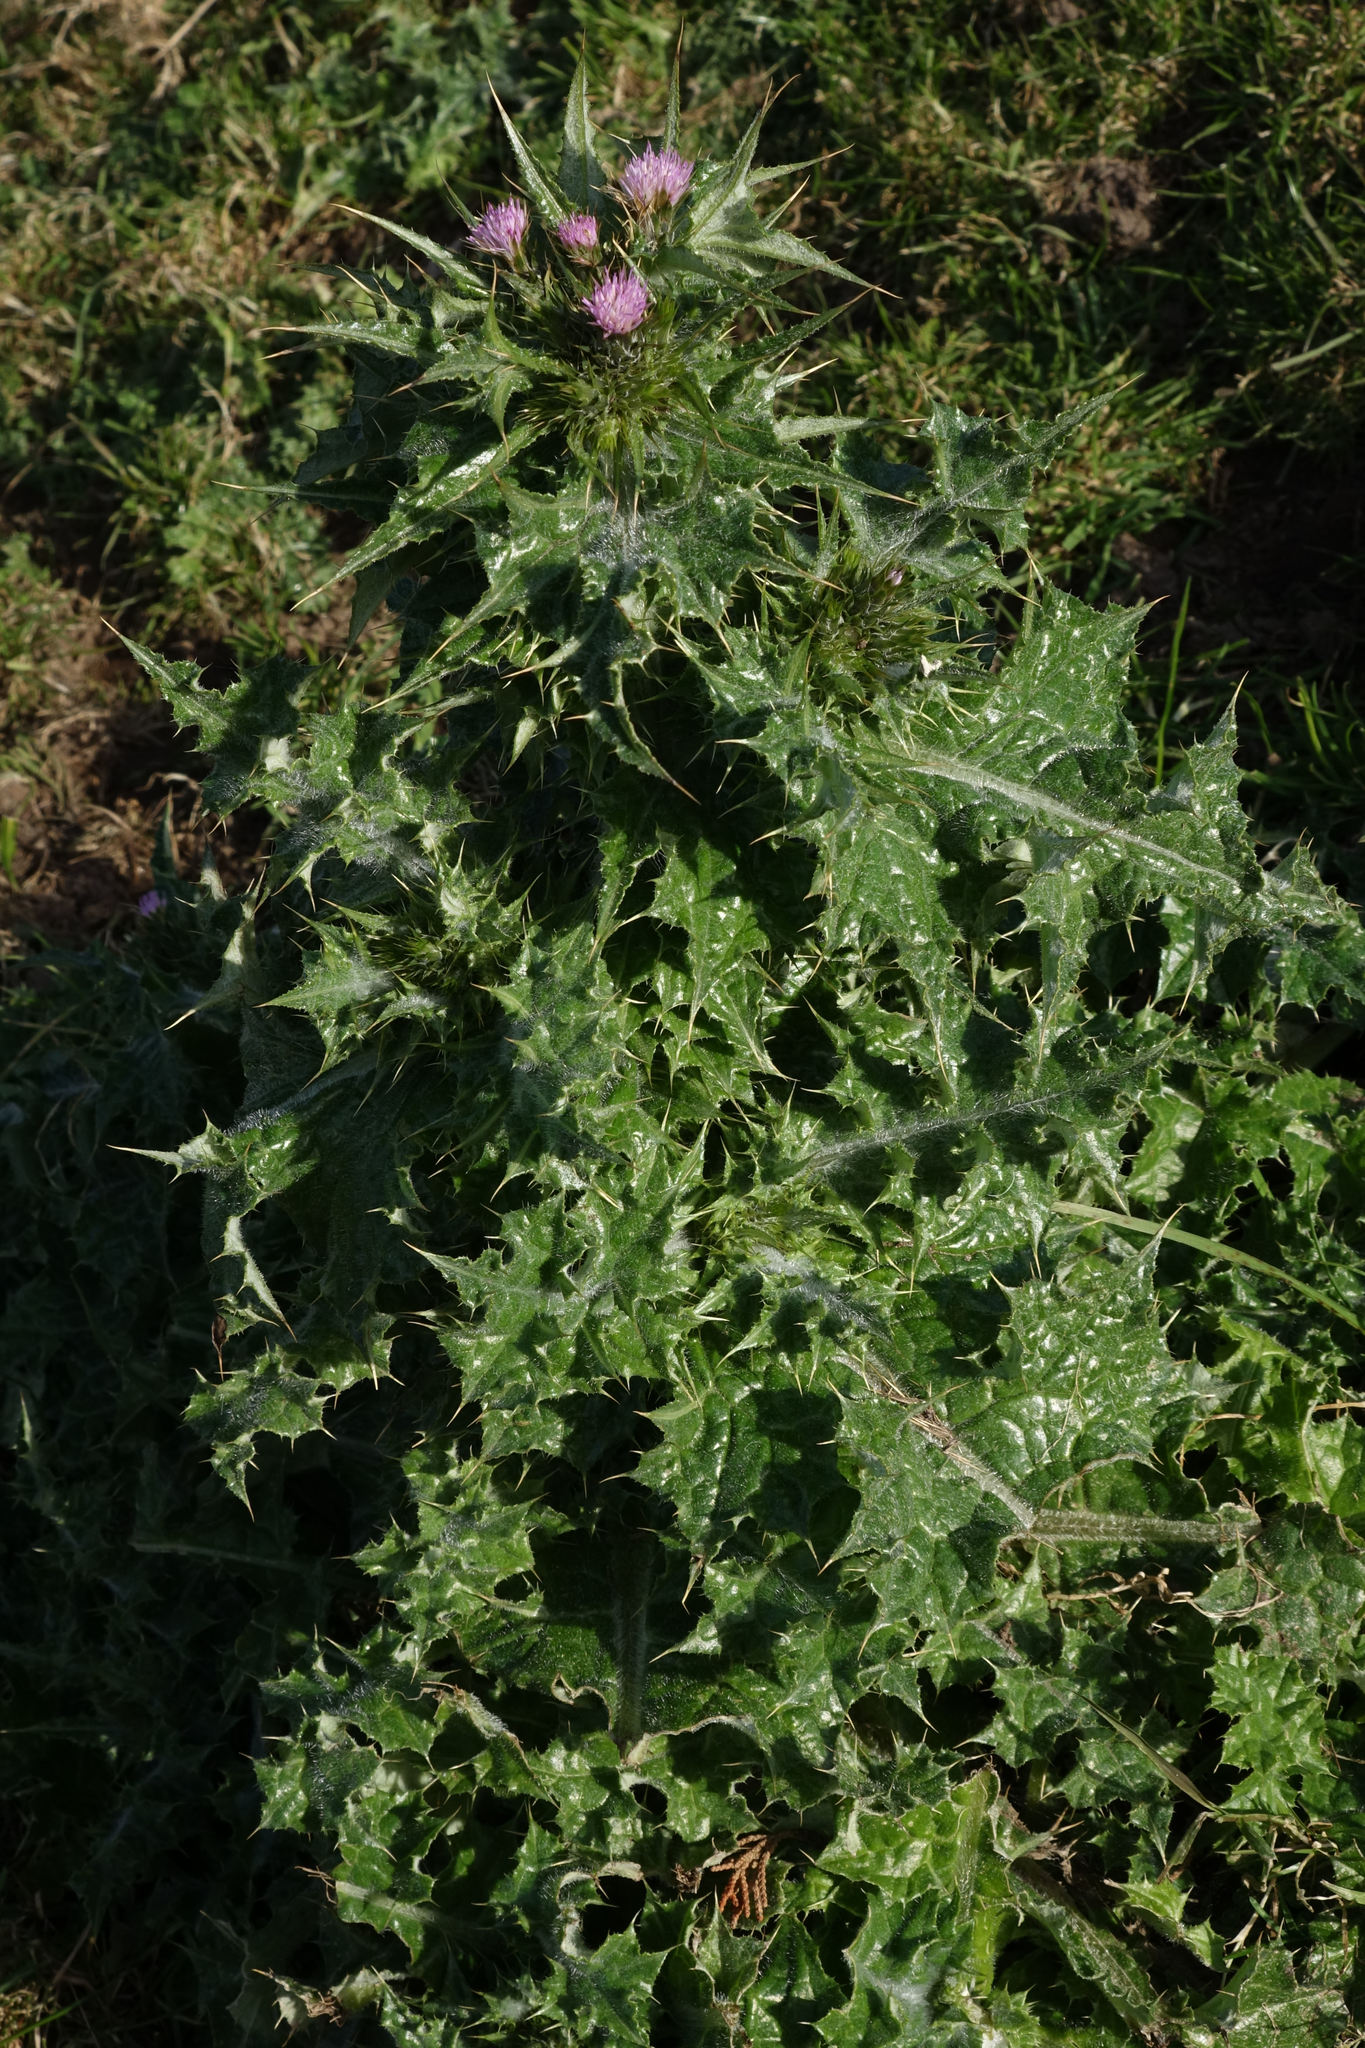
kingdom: Plantae
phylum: Tracheophyta
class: Magnoliopsida
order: Asterales
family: Asteraceae
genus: Carduus
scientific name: Carduus tenuiflorus
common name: Slender thistle
